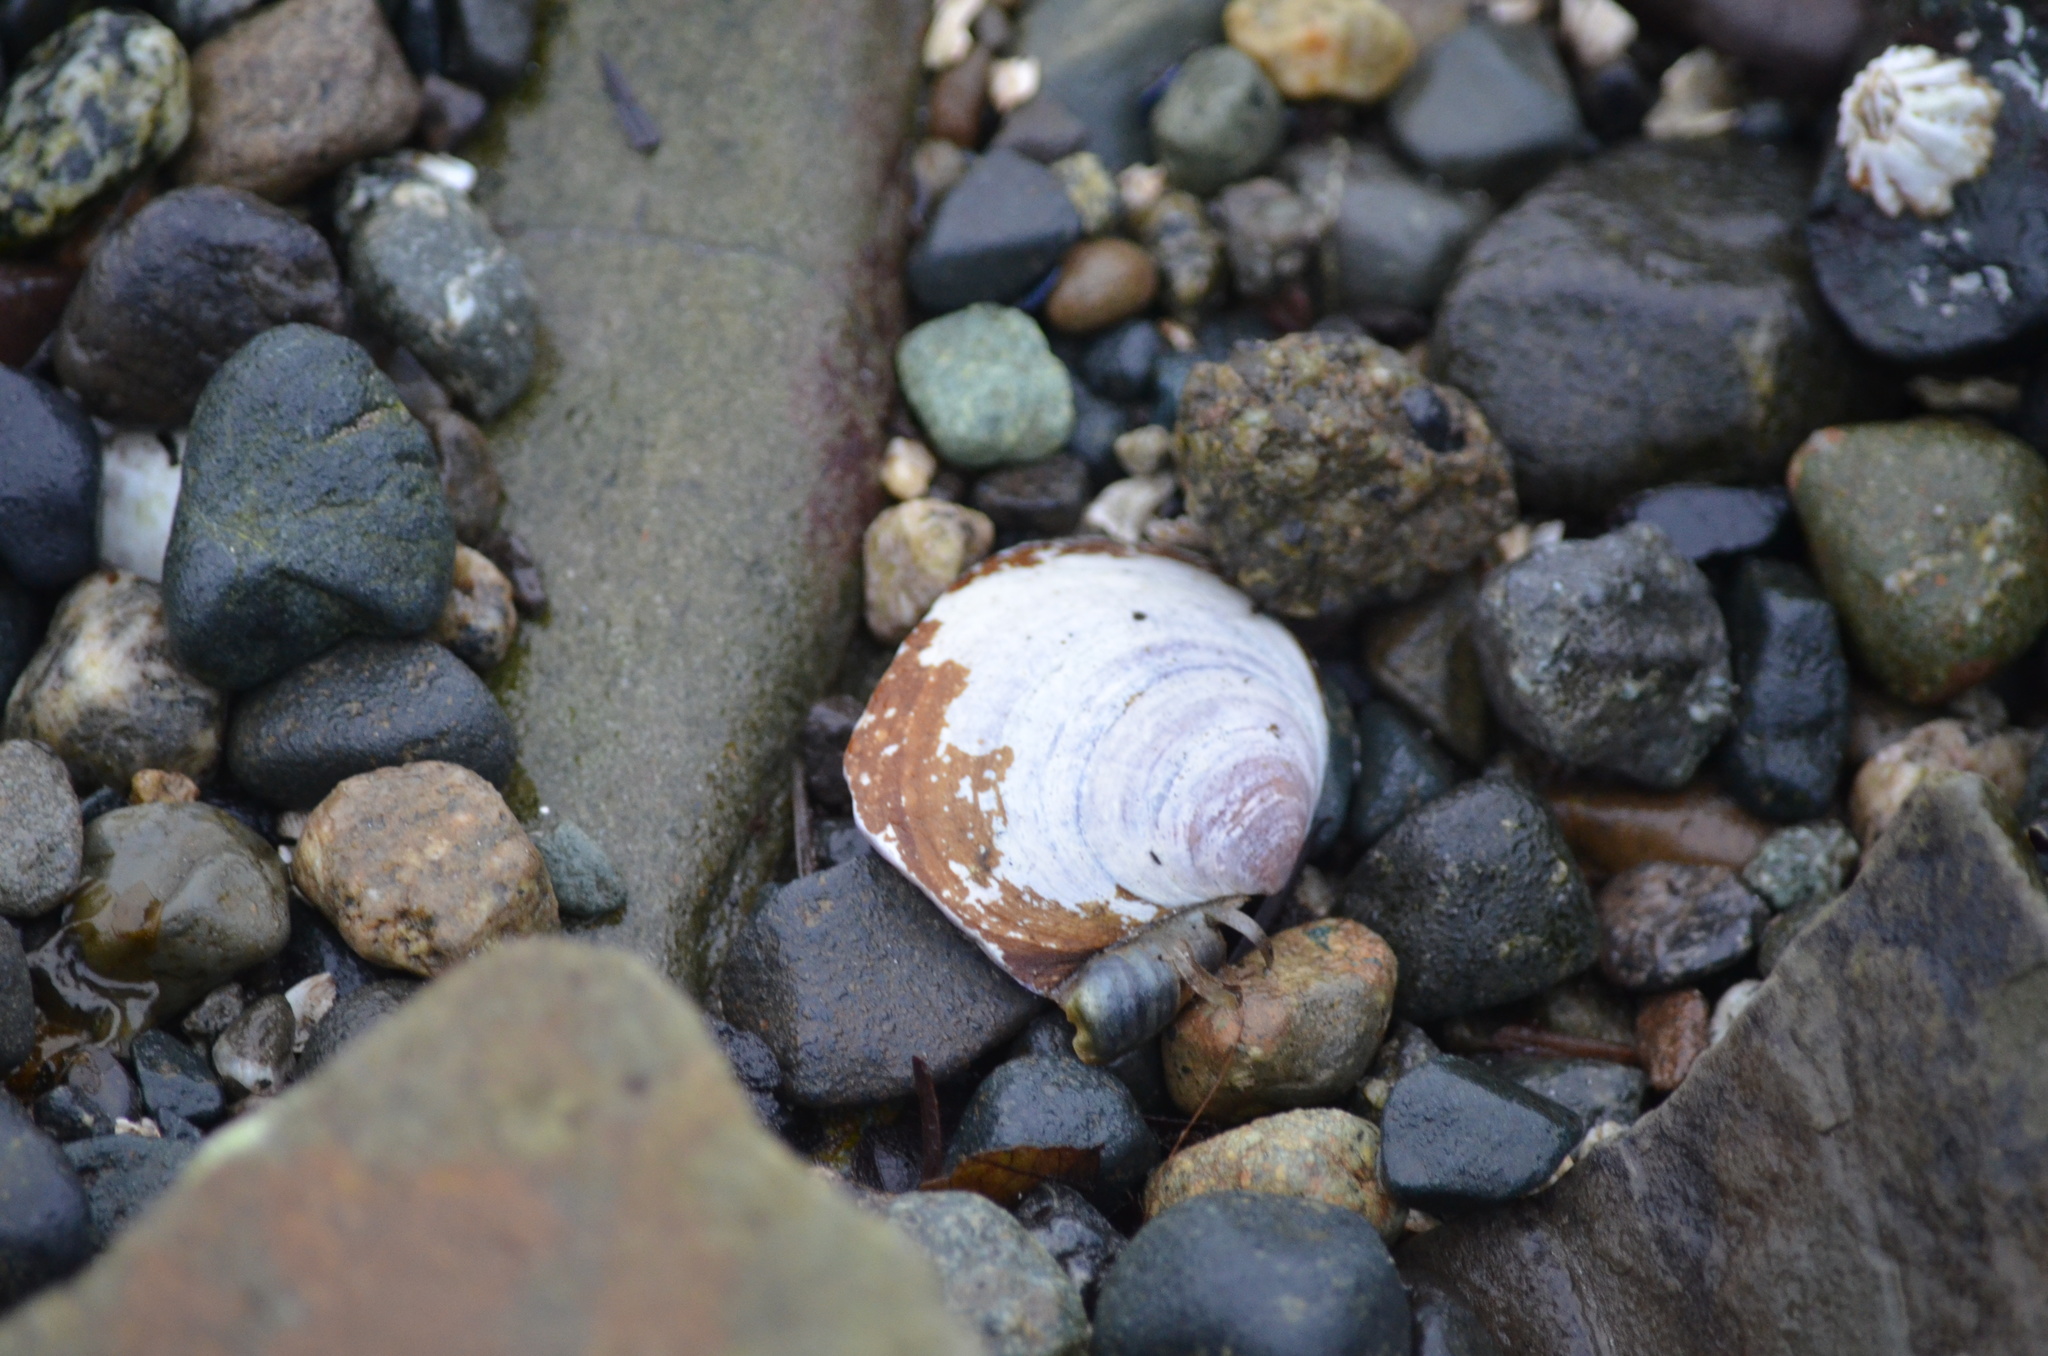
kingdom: Animalia
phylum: Mollusca
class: Bivalvia
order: Cardiida
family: Psammobiidae
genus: Nuttallia
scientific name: Nuttallia obscurata
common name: Purple mahogany-clam
